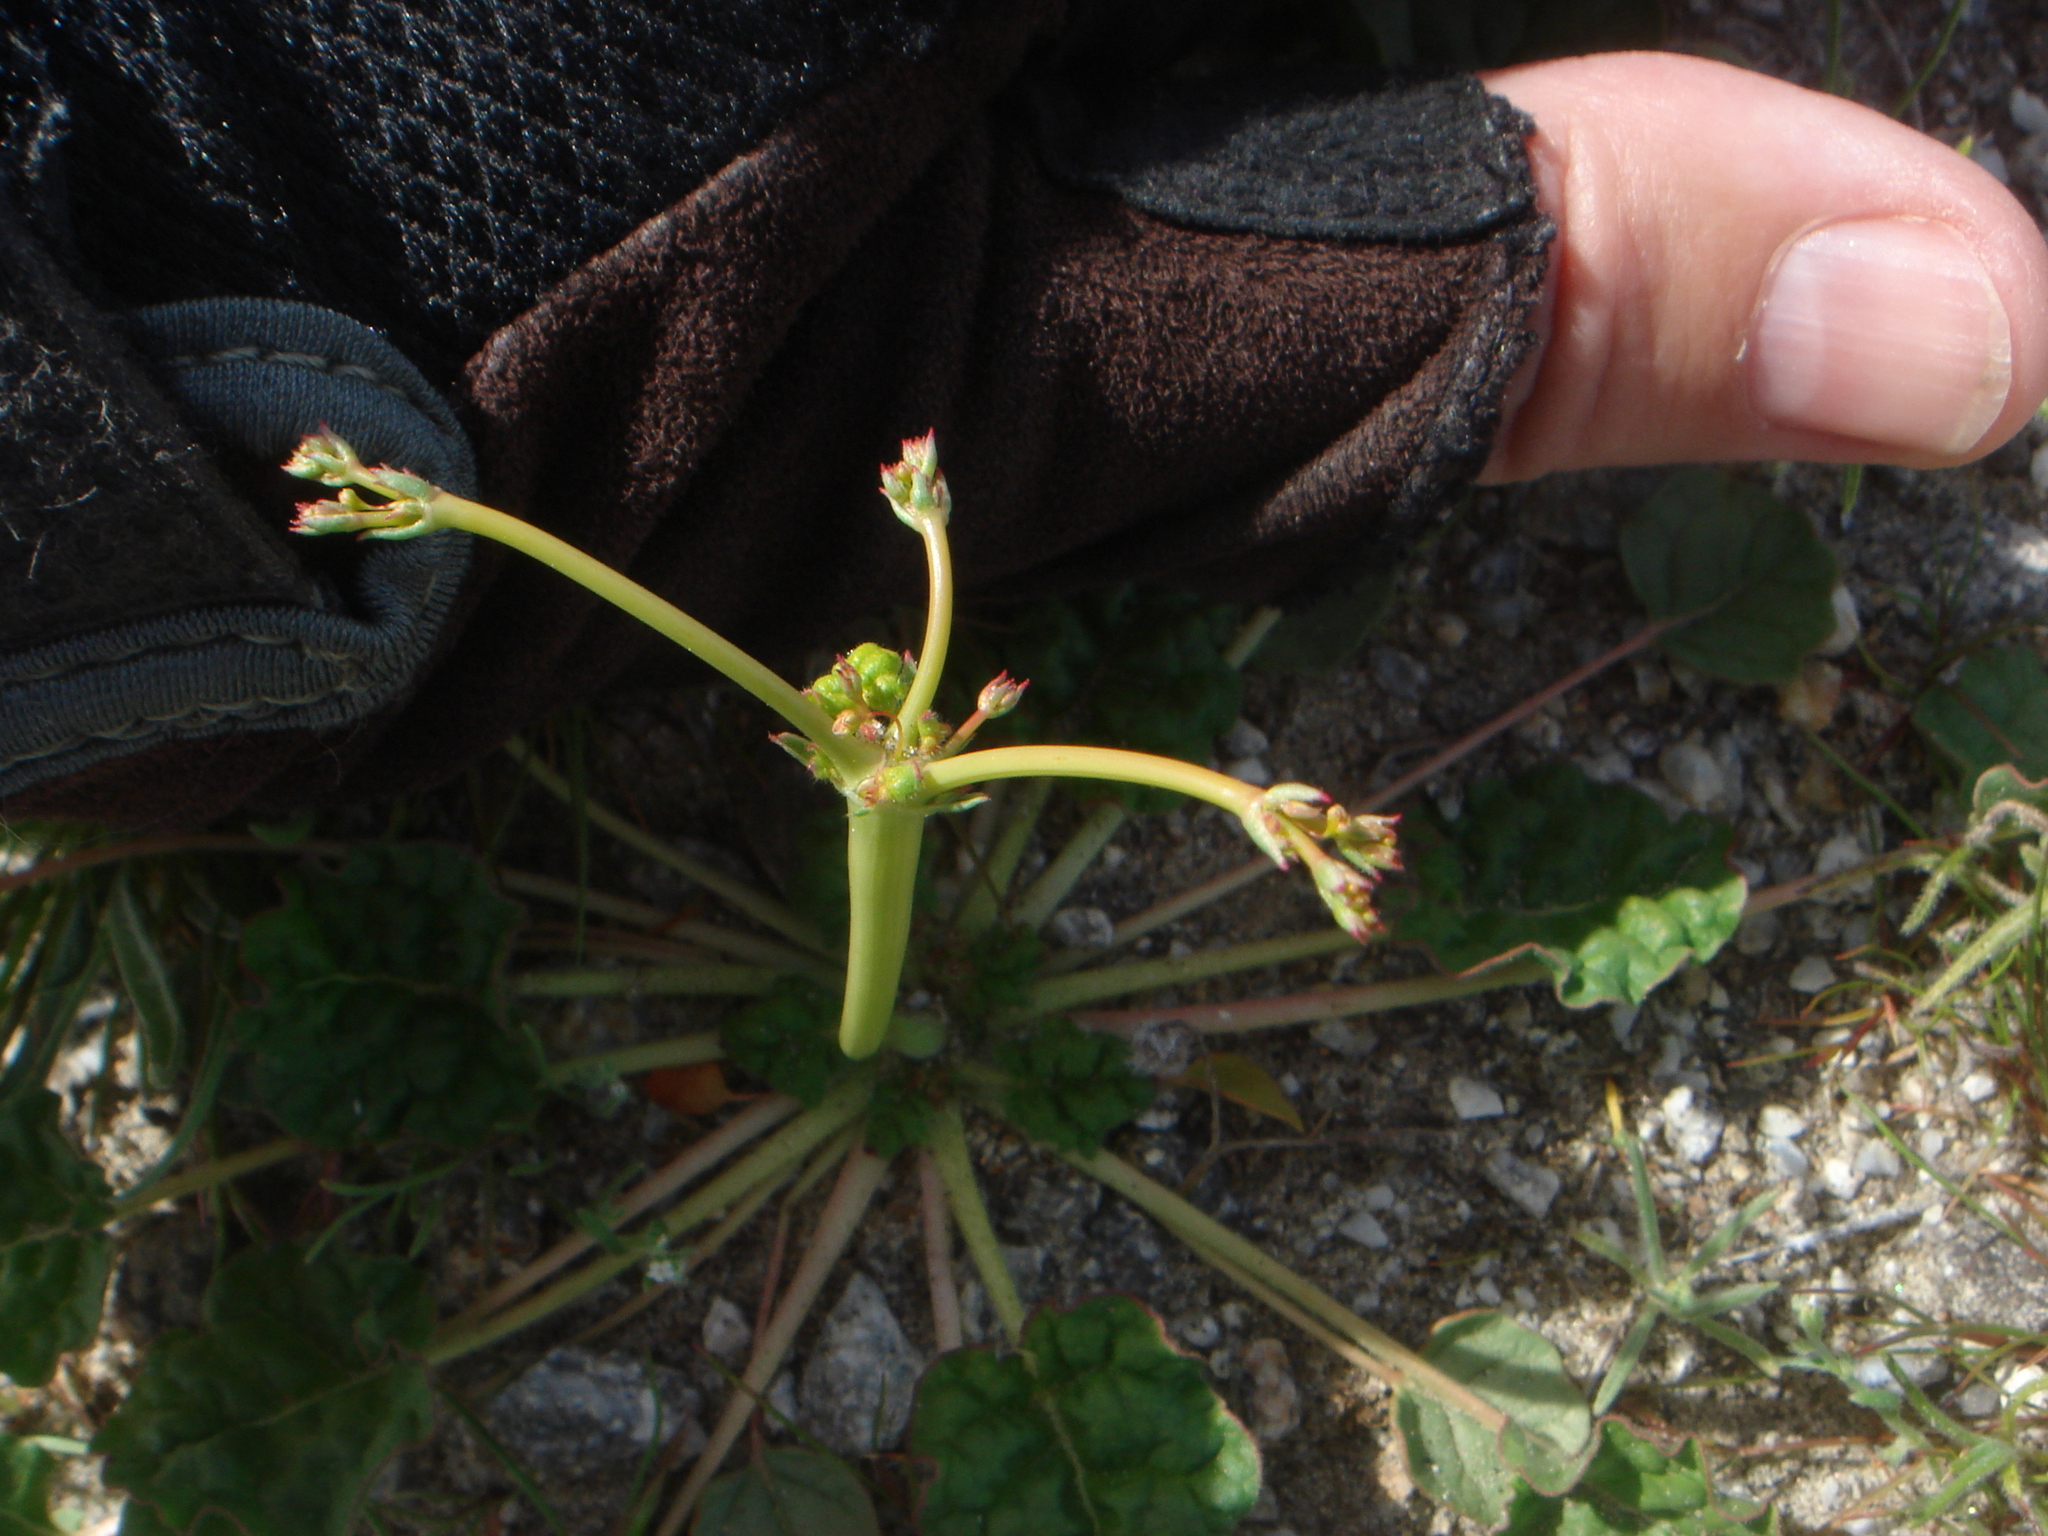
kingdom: Plantae
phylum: Tracheophyta
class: Magnoliopsida
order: Caryophyllales
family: Polygonaceae
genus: Eriogonum
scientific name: Eriogonum trichopes
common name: Little desert trumpet
